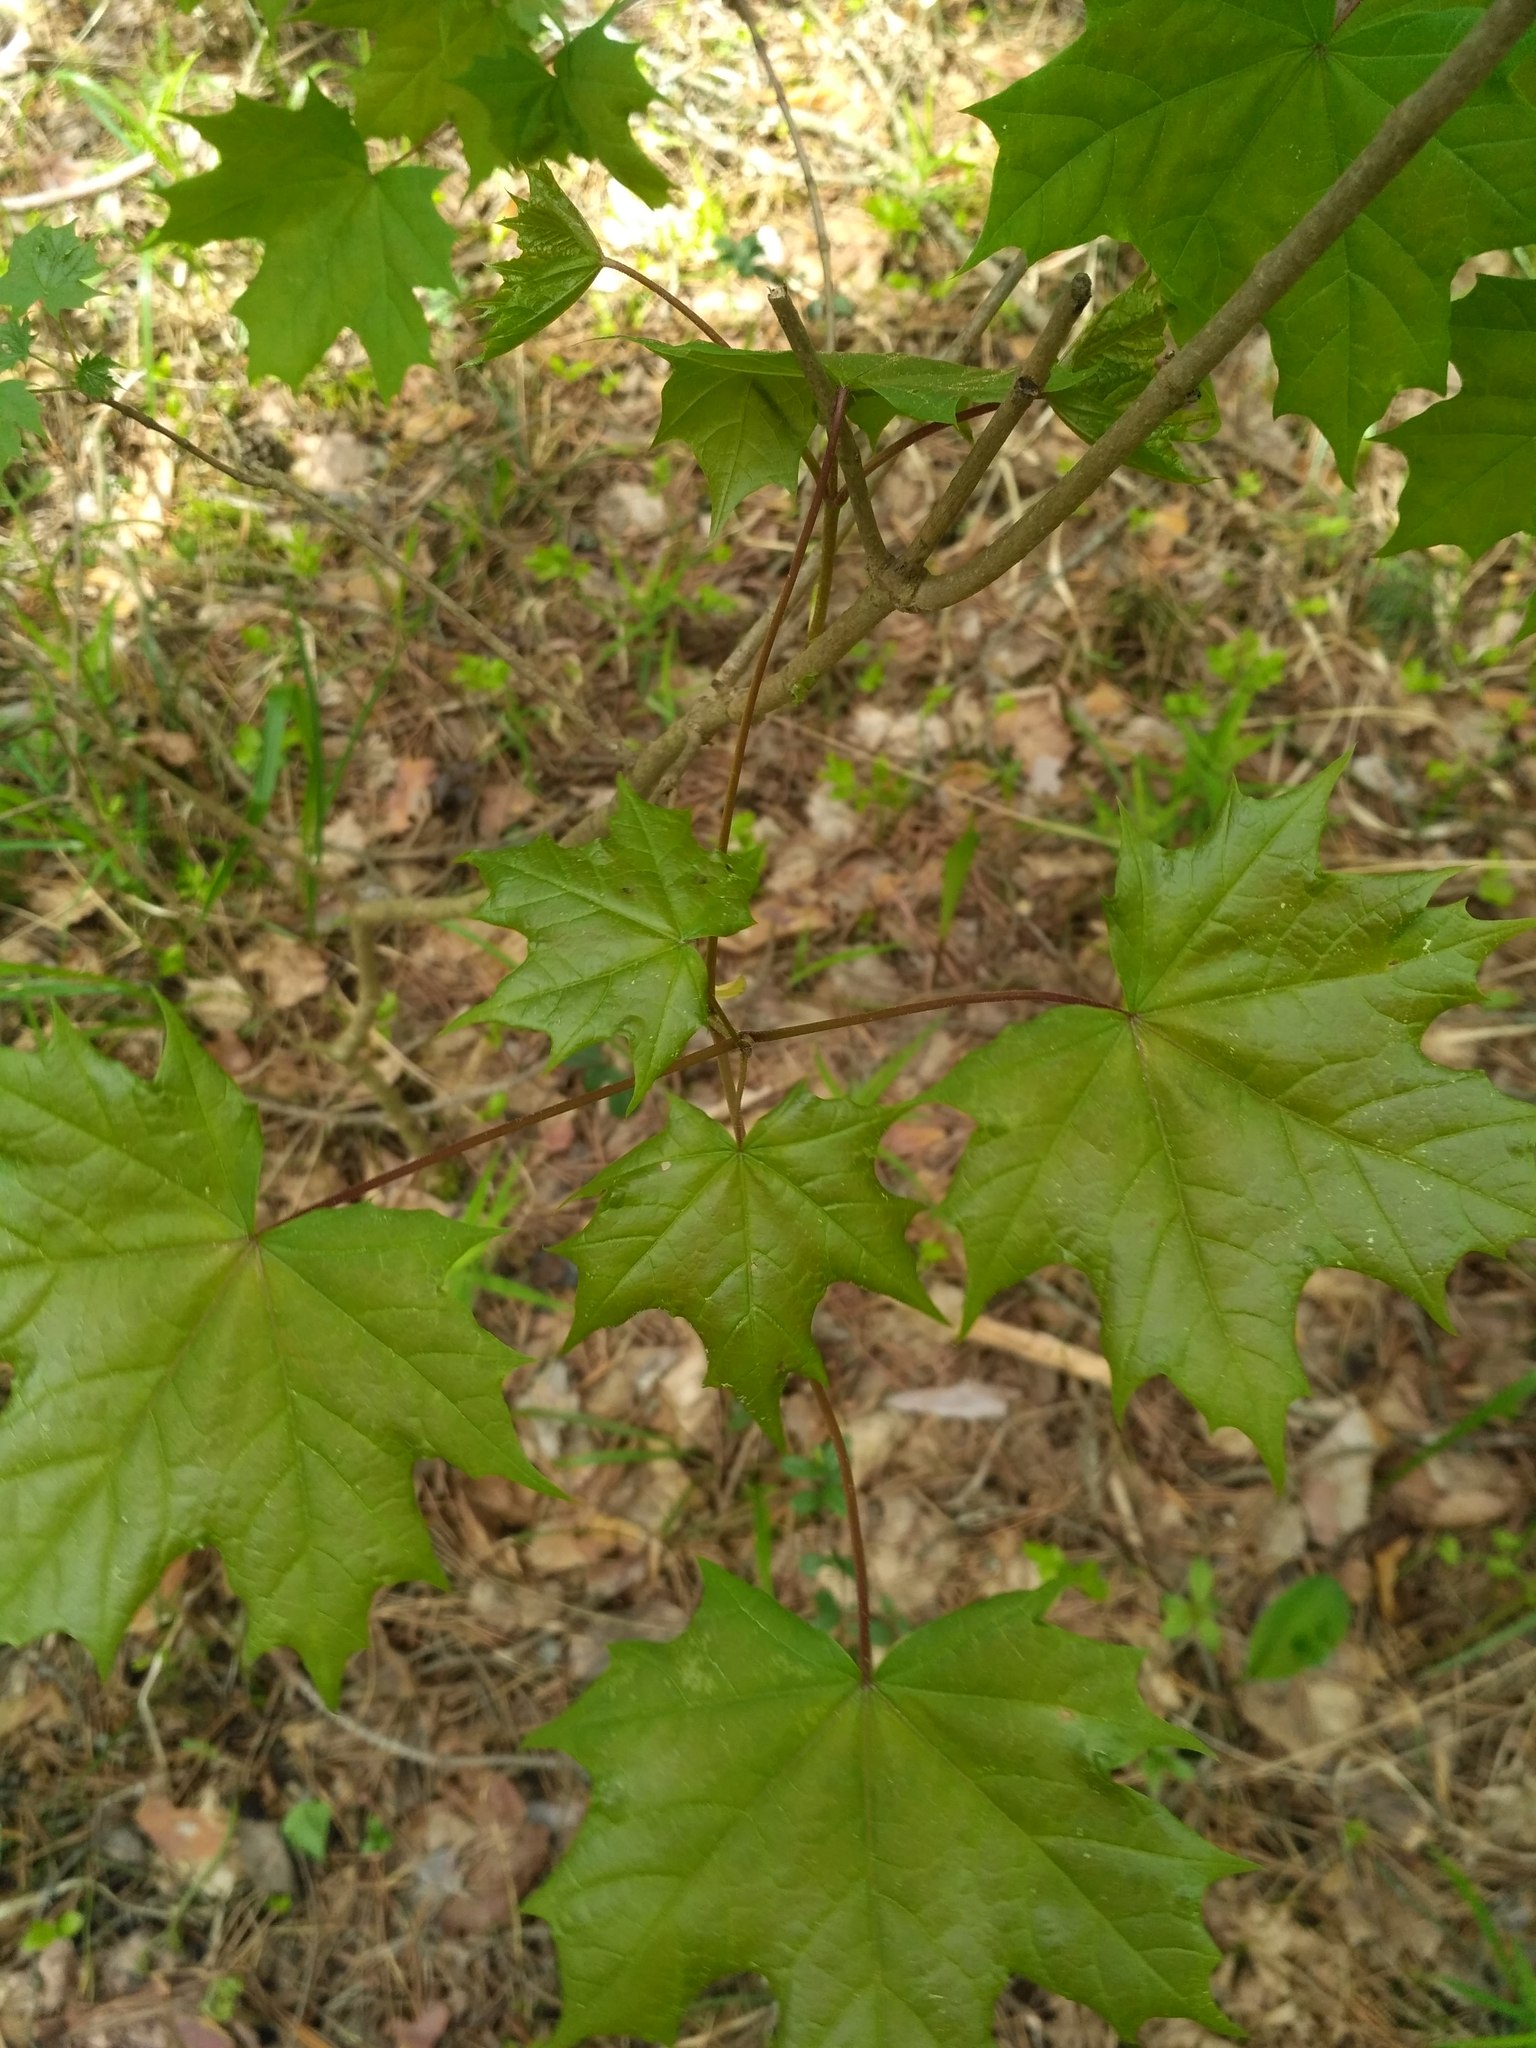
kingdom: Plantae
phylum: Tracheophyta
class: Magnoliopsida
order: Sapindales
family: Sapindaceae
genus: Acer
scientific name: Acer platanoides
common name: Norway maple
